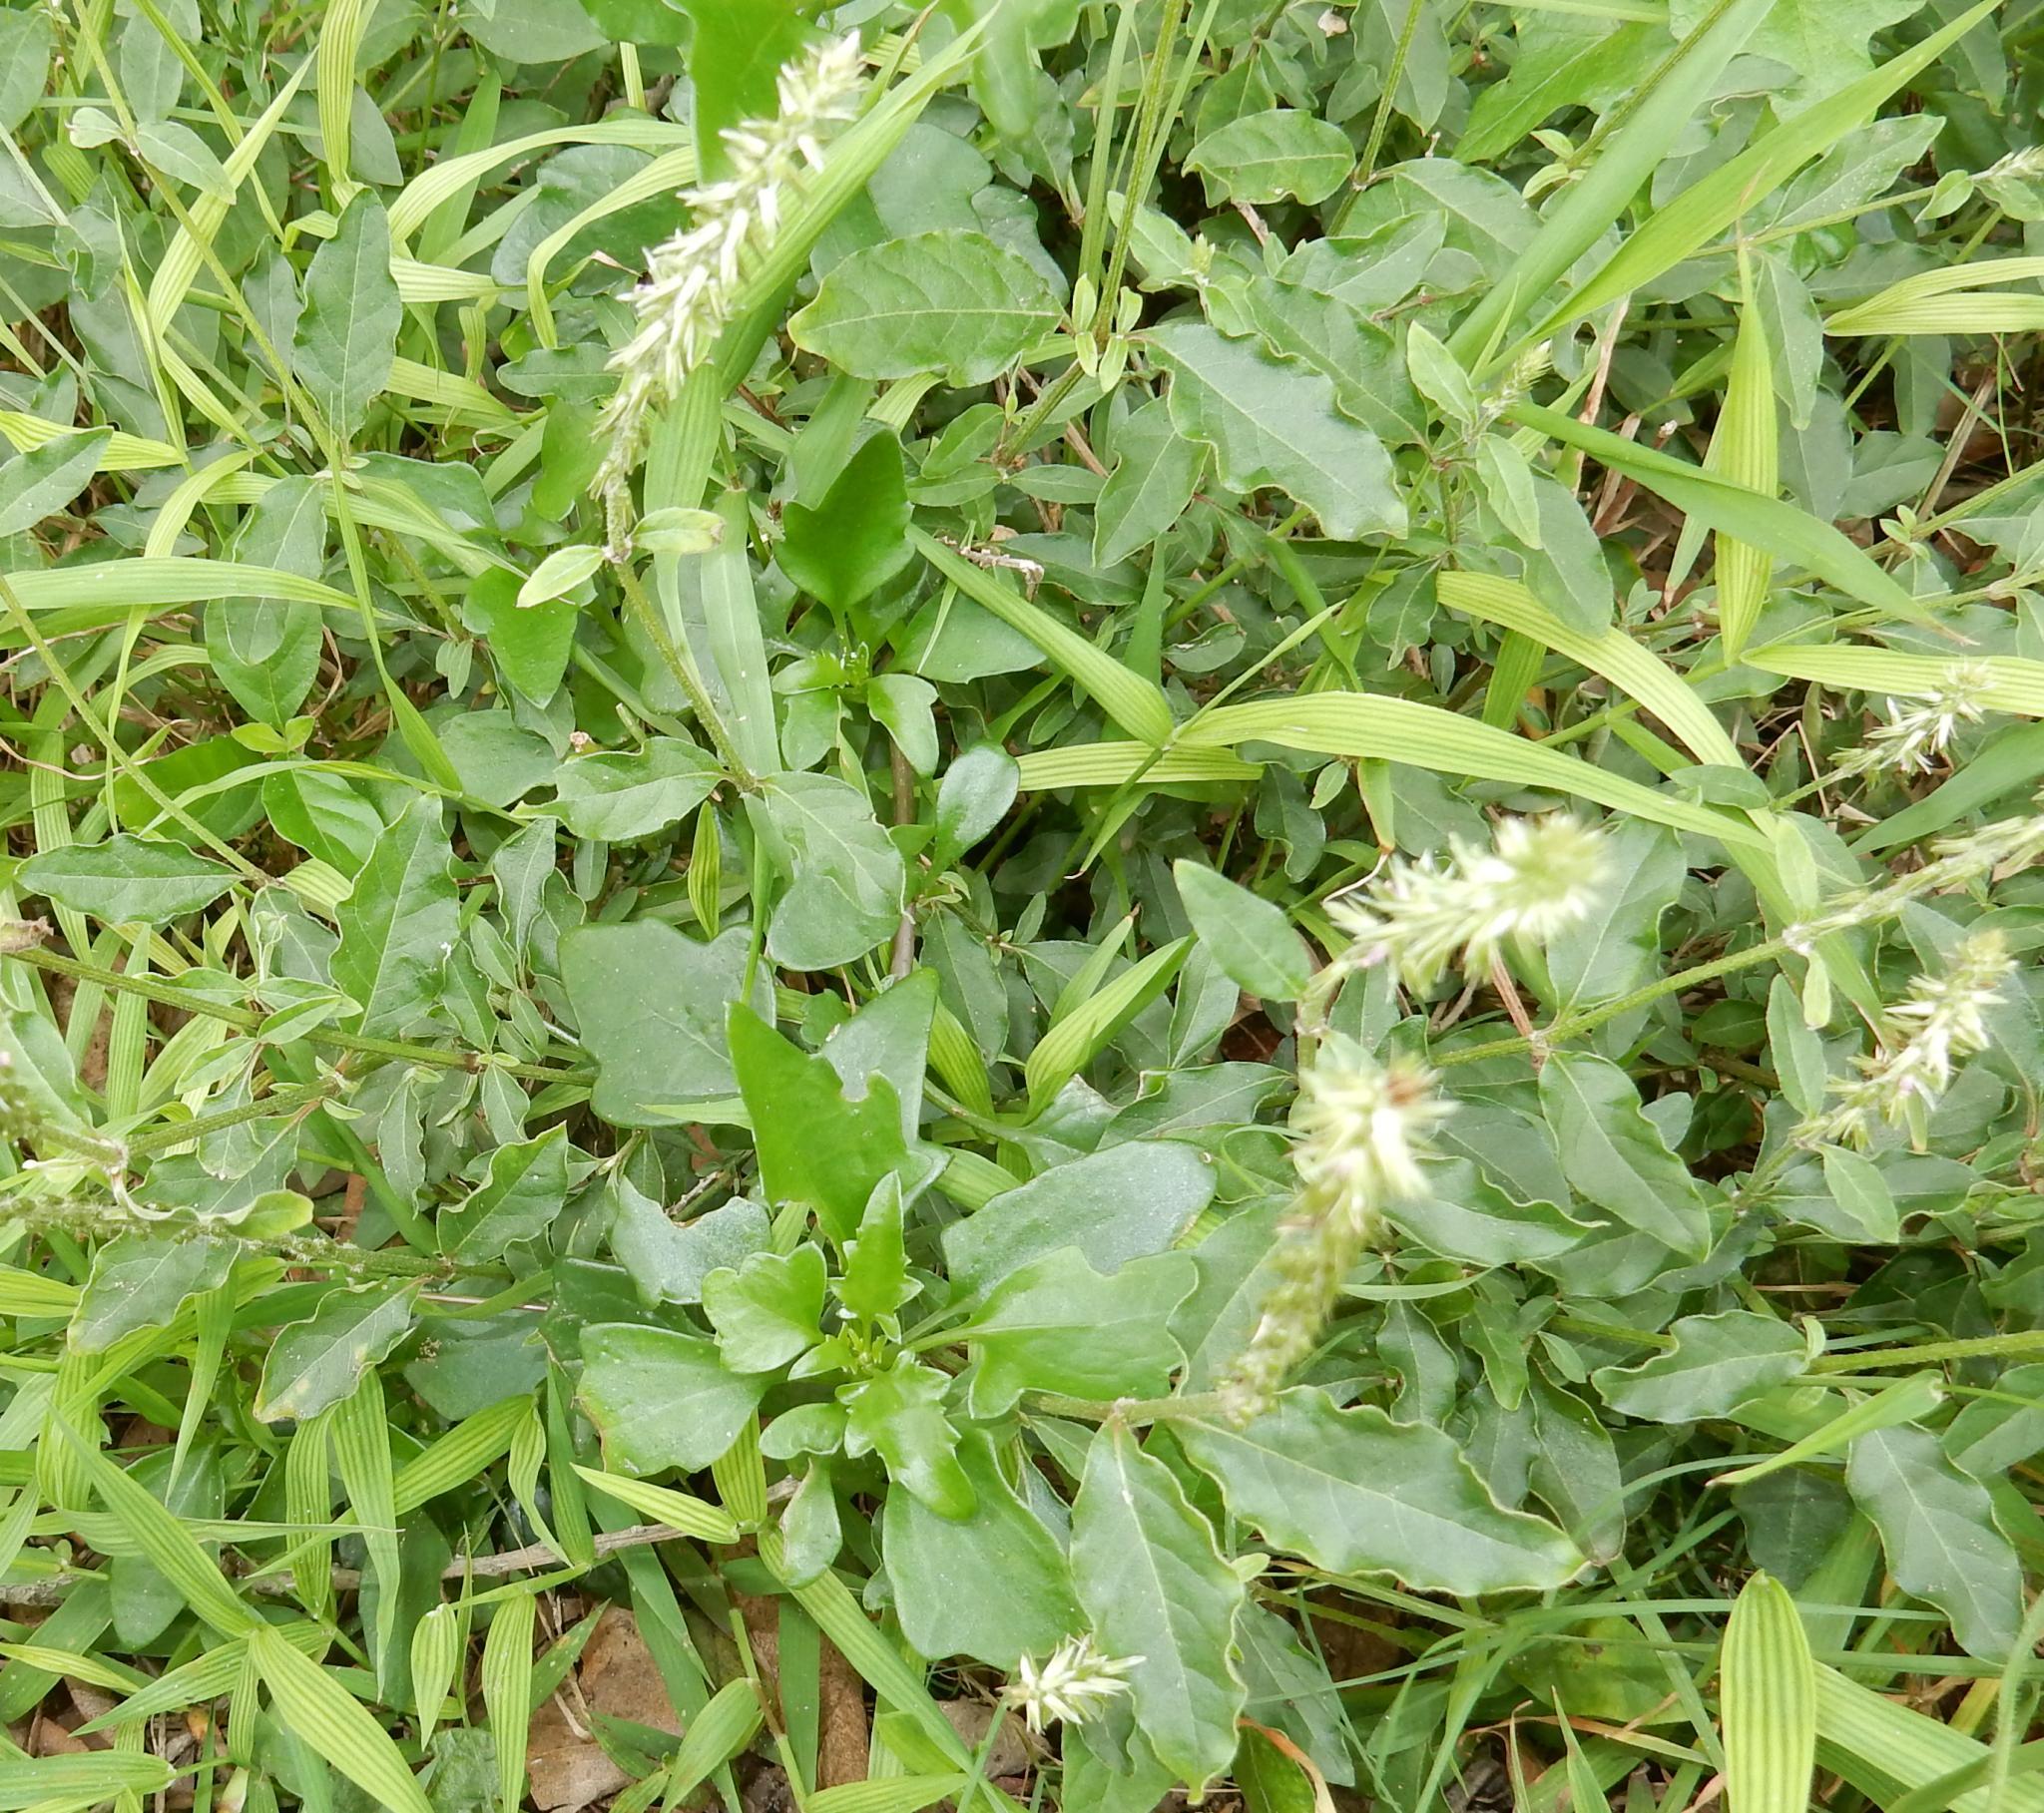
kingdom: Plantae
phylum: Tracheophyta
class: Magnoliopsida
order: Caryophyllales
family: Amaranthaceae
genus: Achyranthes
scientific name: Achyranthes aspera
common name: Devil's horsewhip
